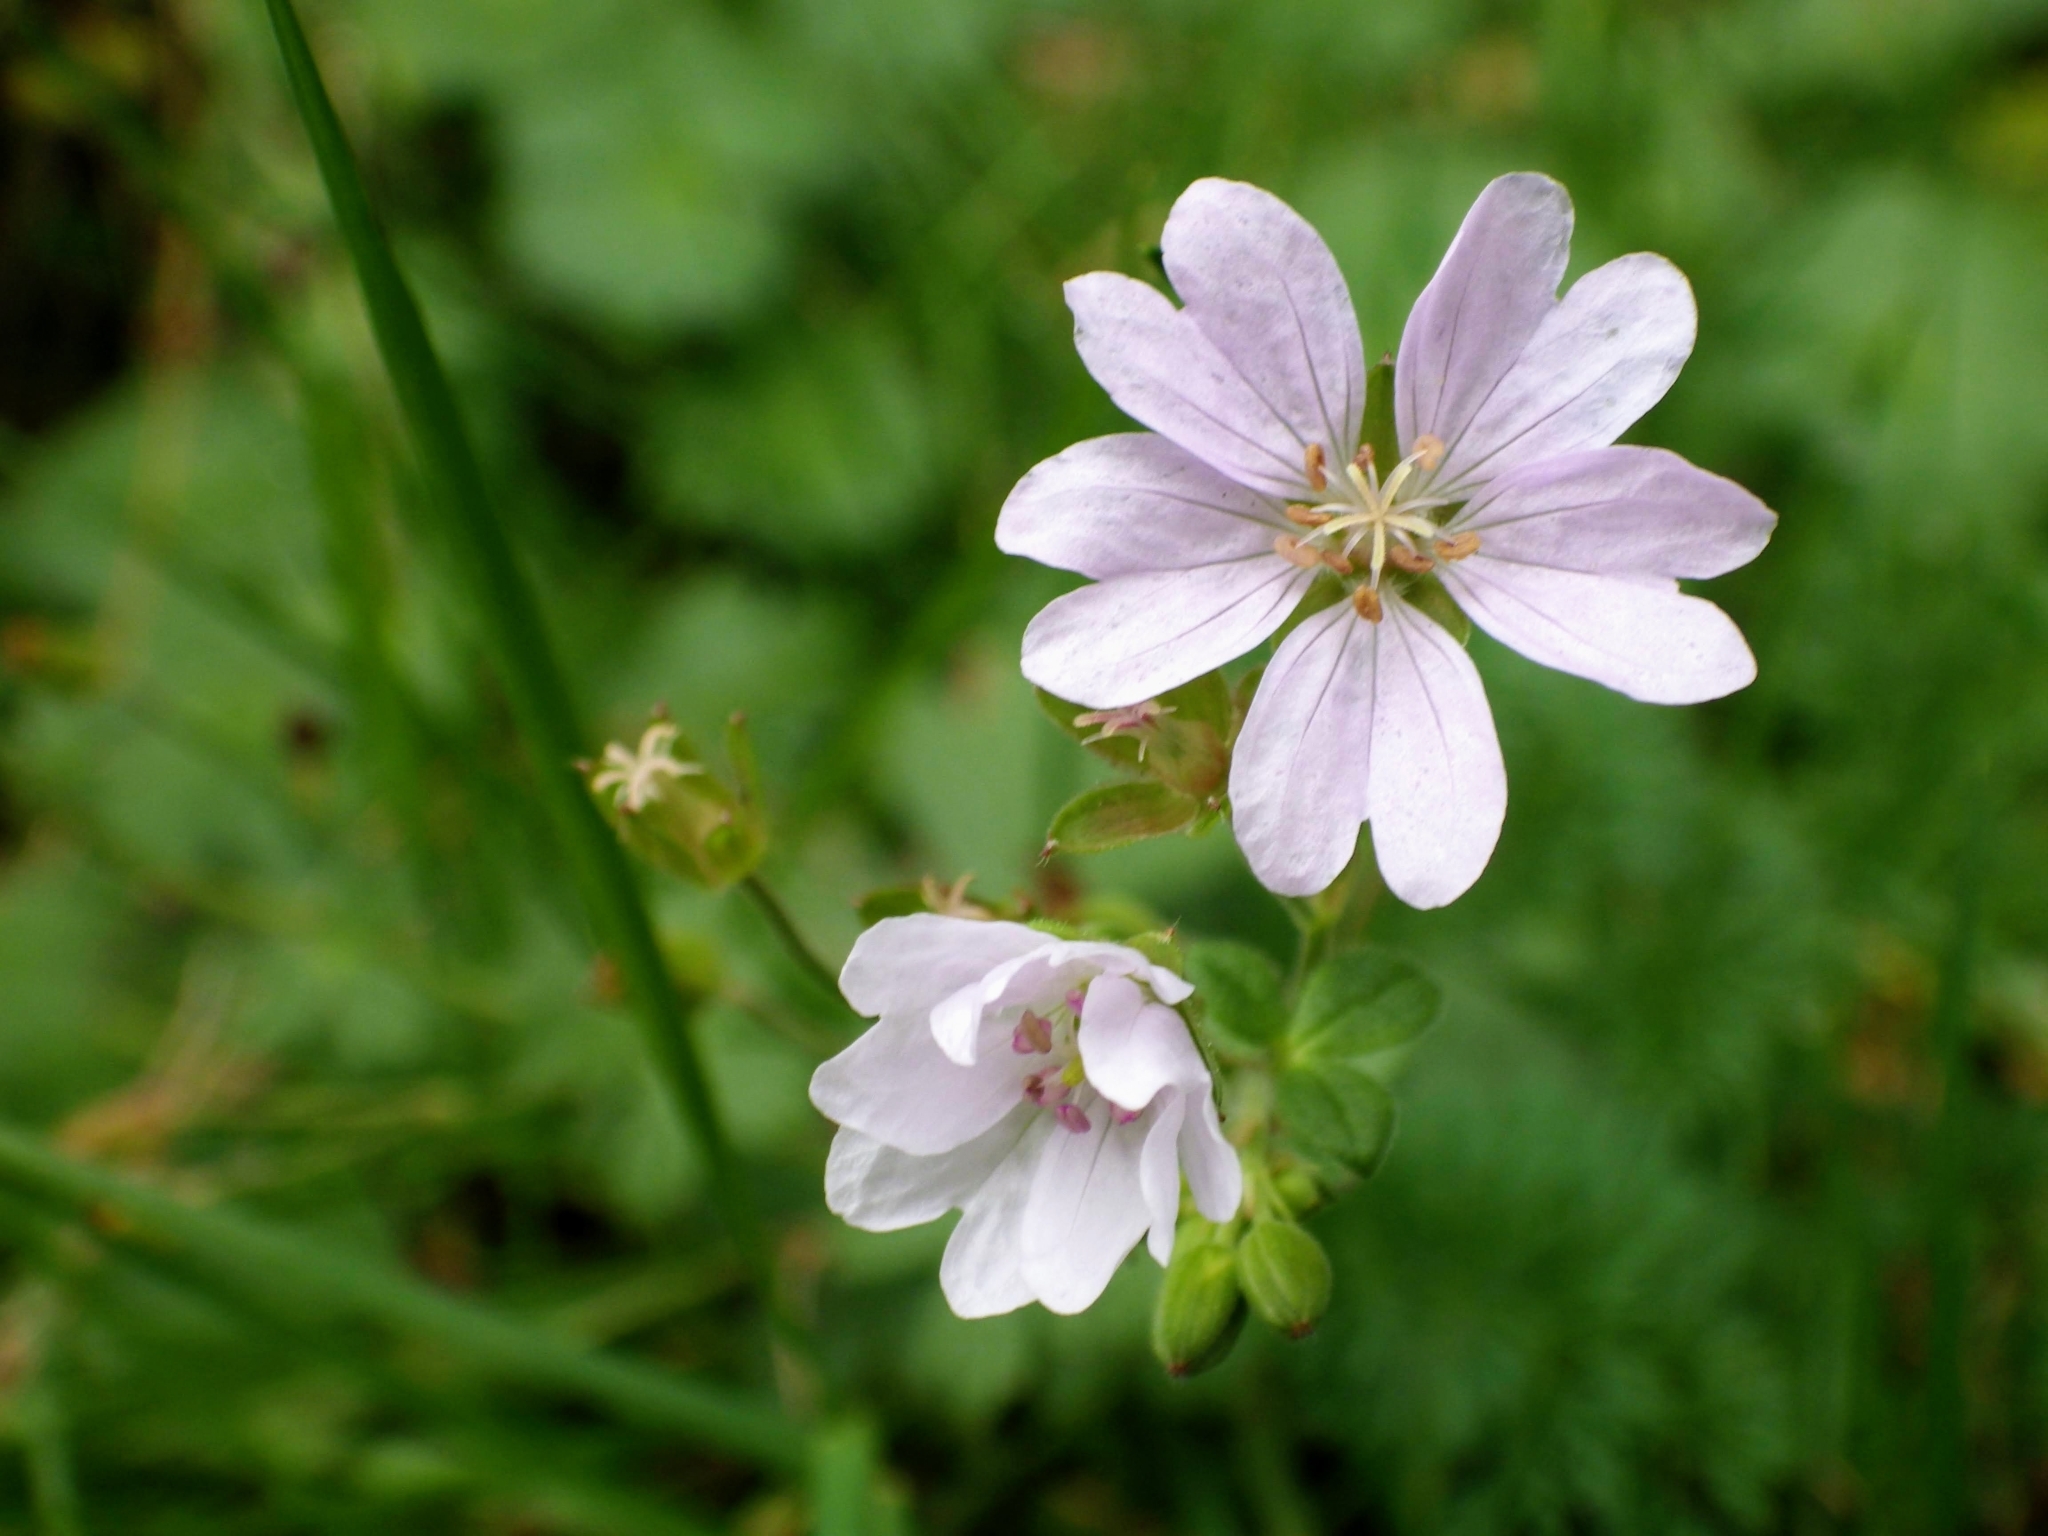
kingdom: Plantae
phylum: Tracheophyta
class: Magnoliopsida
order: Geraniales
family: Geraniaceae
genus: Geranium
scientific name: Geranium pyrenaicum
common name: Hedgerow crane's-bill
